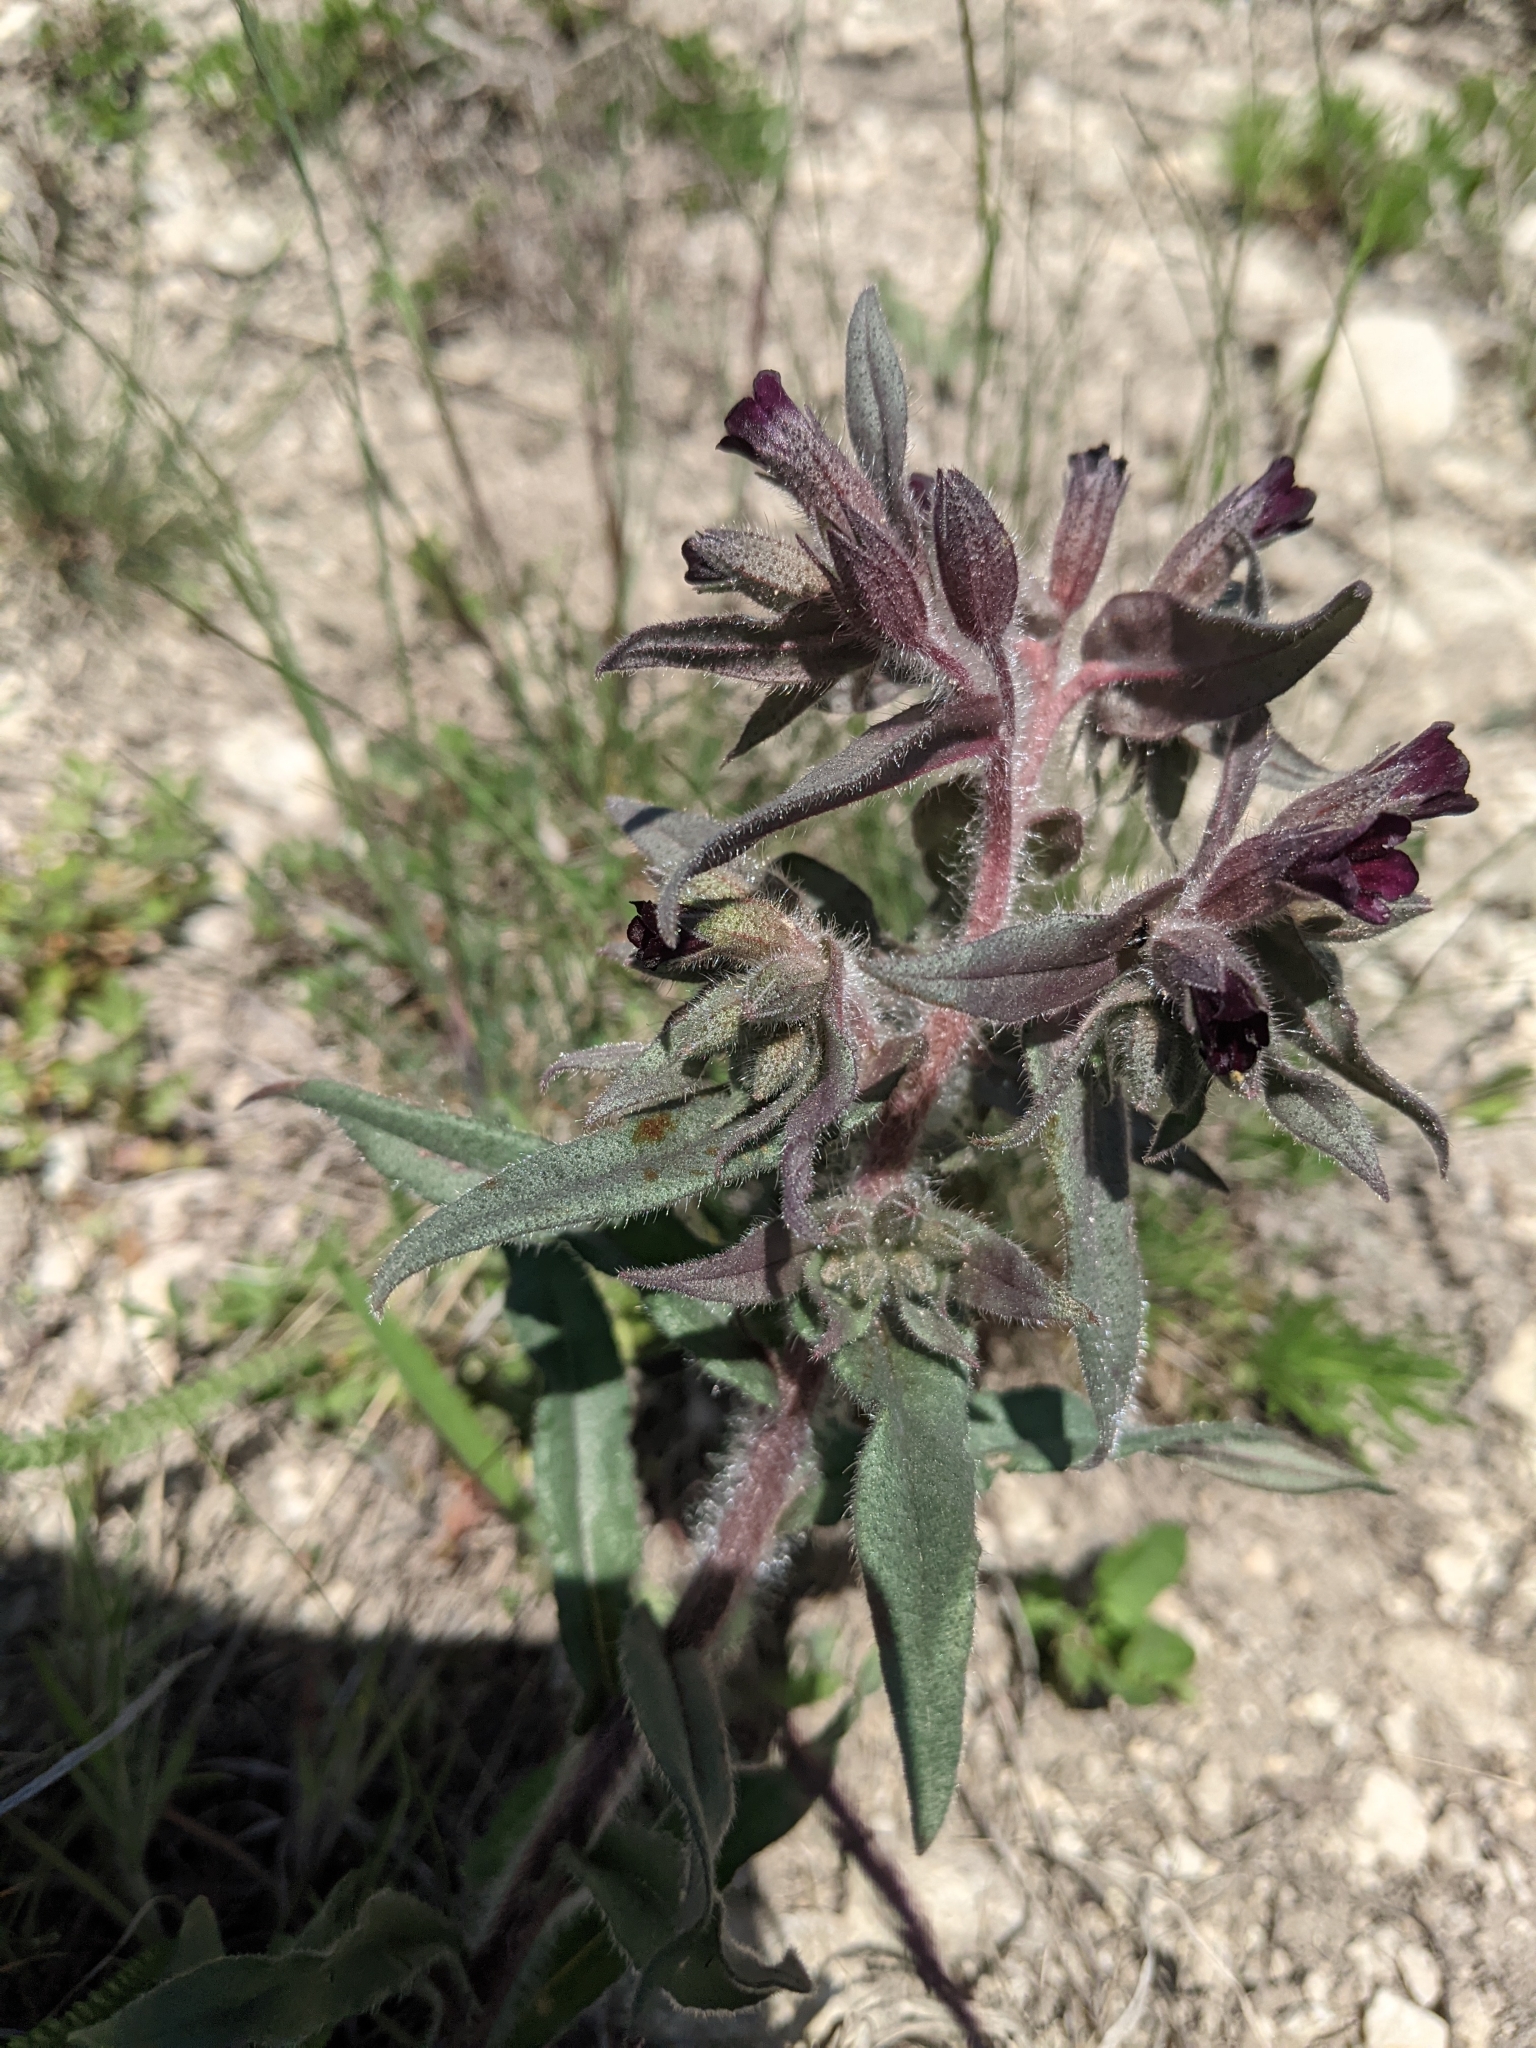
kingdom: Plantae
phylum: Tracheophyta
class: Magnoliopsida
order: Boraginales
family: Boraginaceae
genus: Nonea
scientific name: Nonea pulla
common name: Brown nonea
